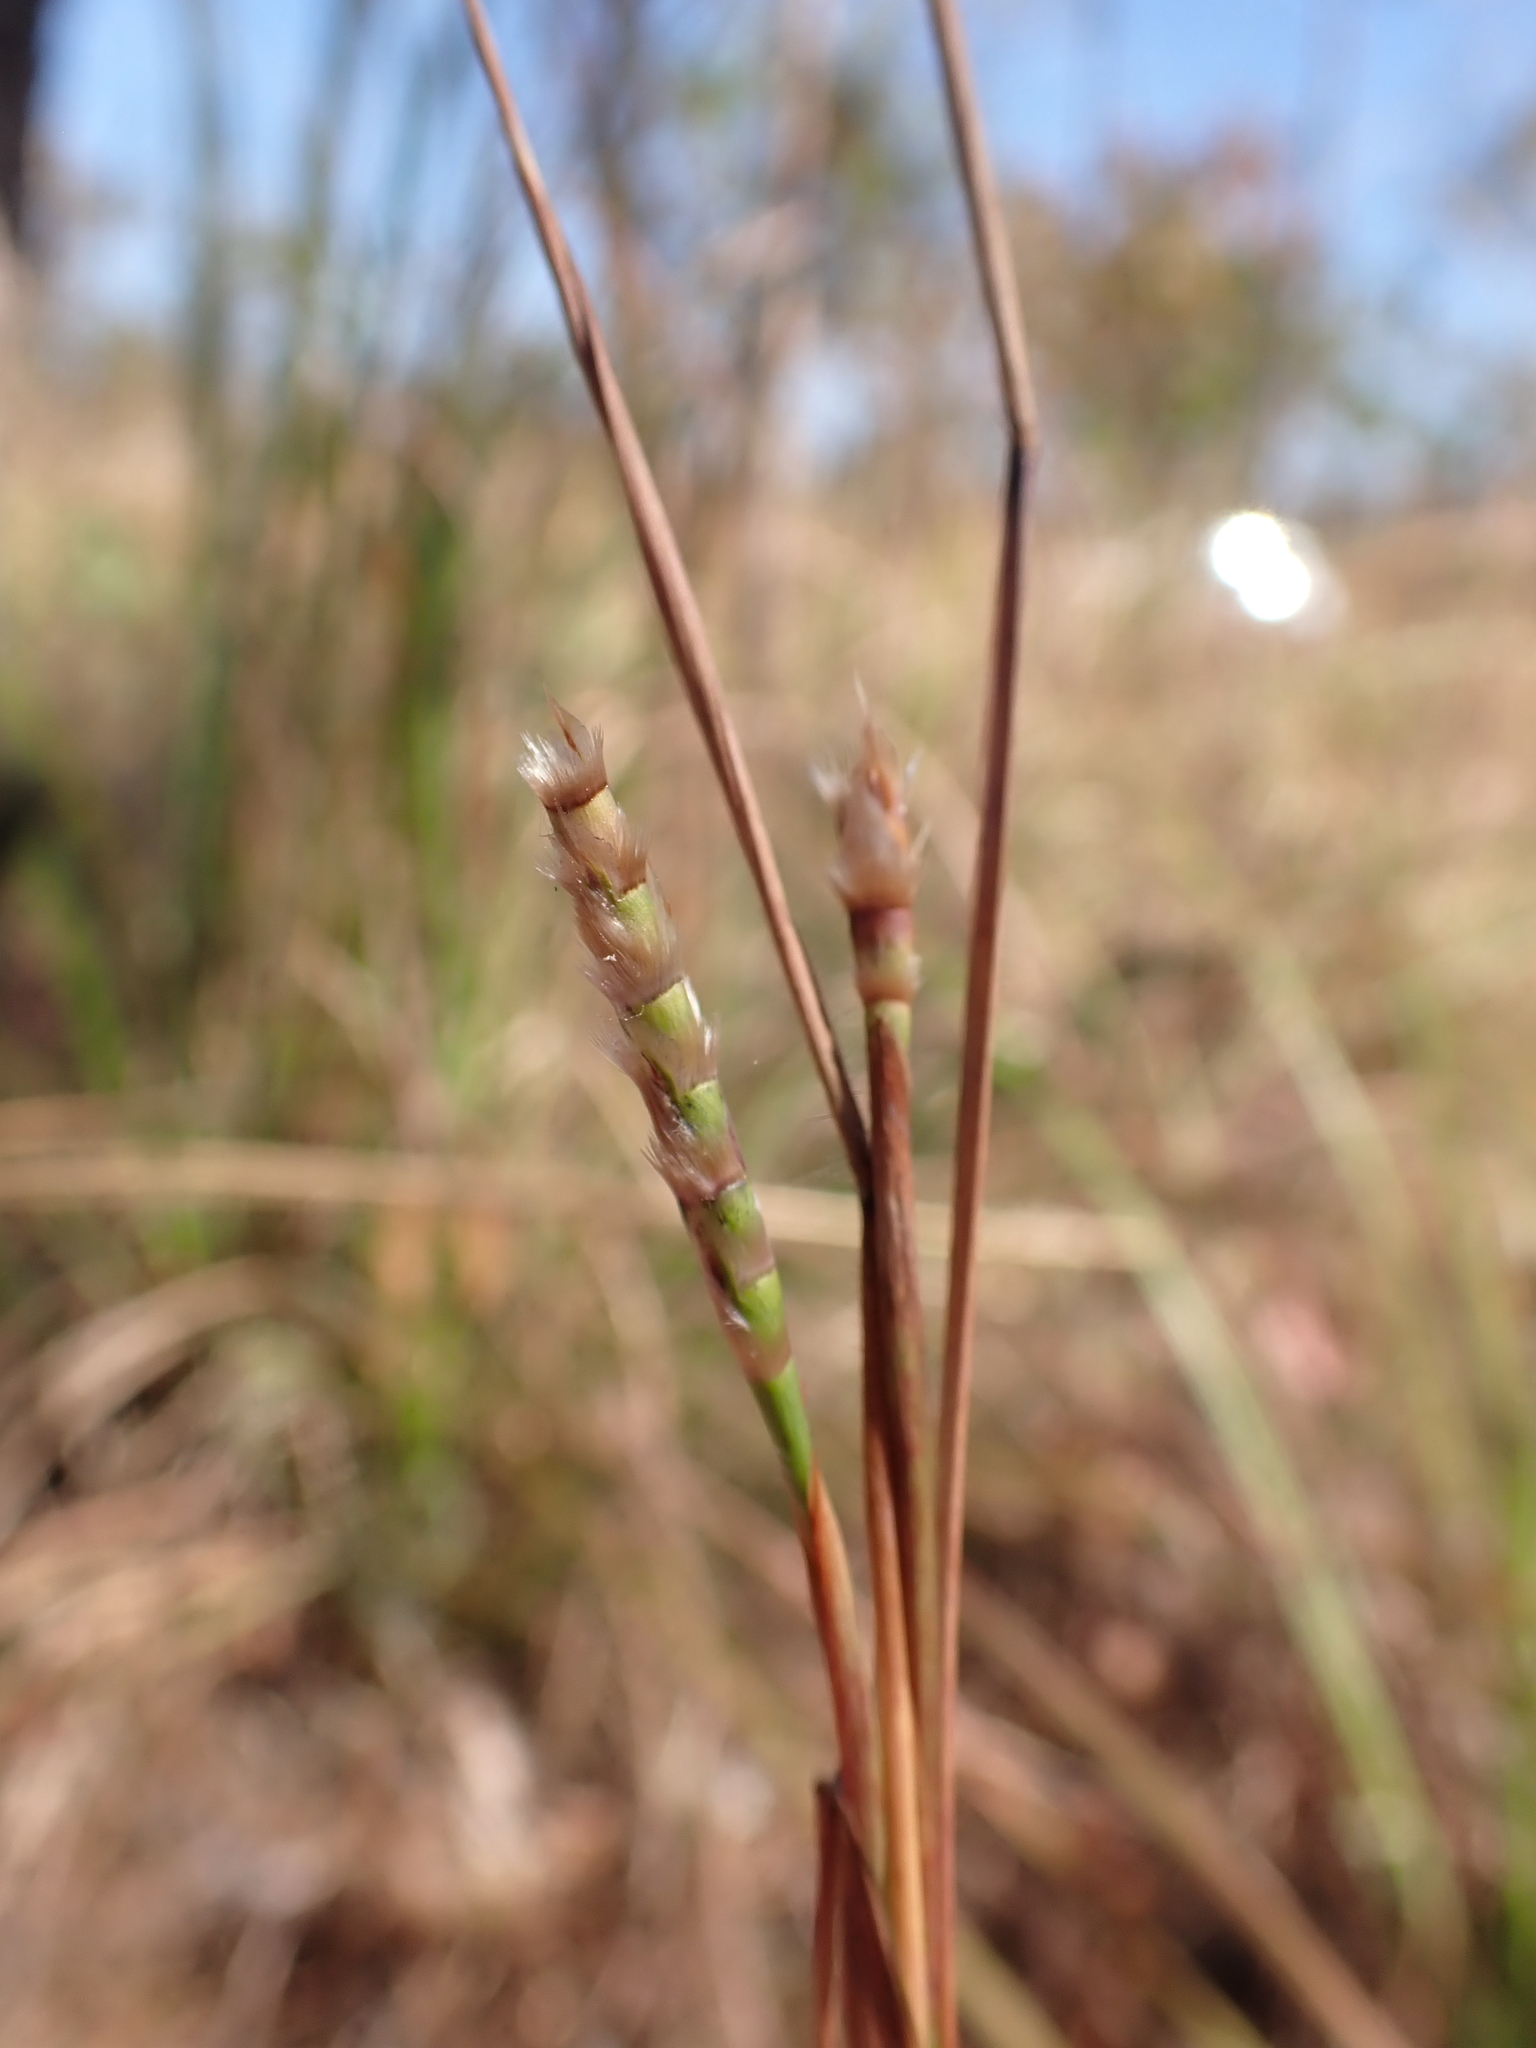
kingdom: Plantae
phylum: Tracheophyta
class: Liliopsida
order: Poales
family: Poaceae
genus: Mnesithea
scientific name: Mnesithea formosa
